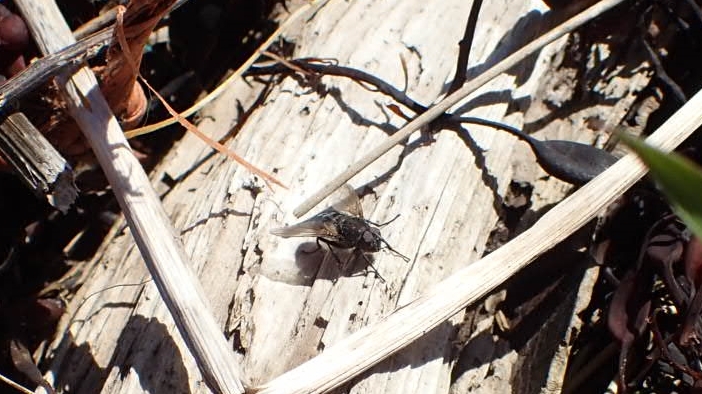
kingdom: Animalia
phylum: Arthropoda
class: Insecta
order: Diptera
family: Polleniidae
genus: Pollenia
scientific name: Pollenia
